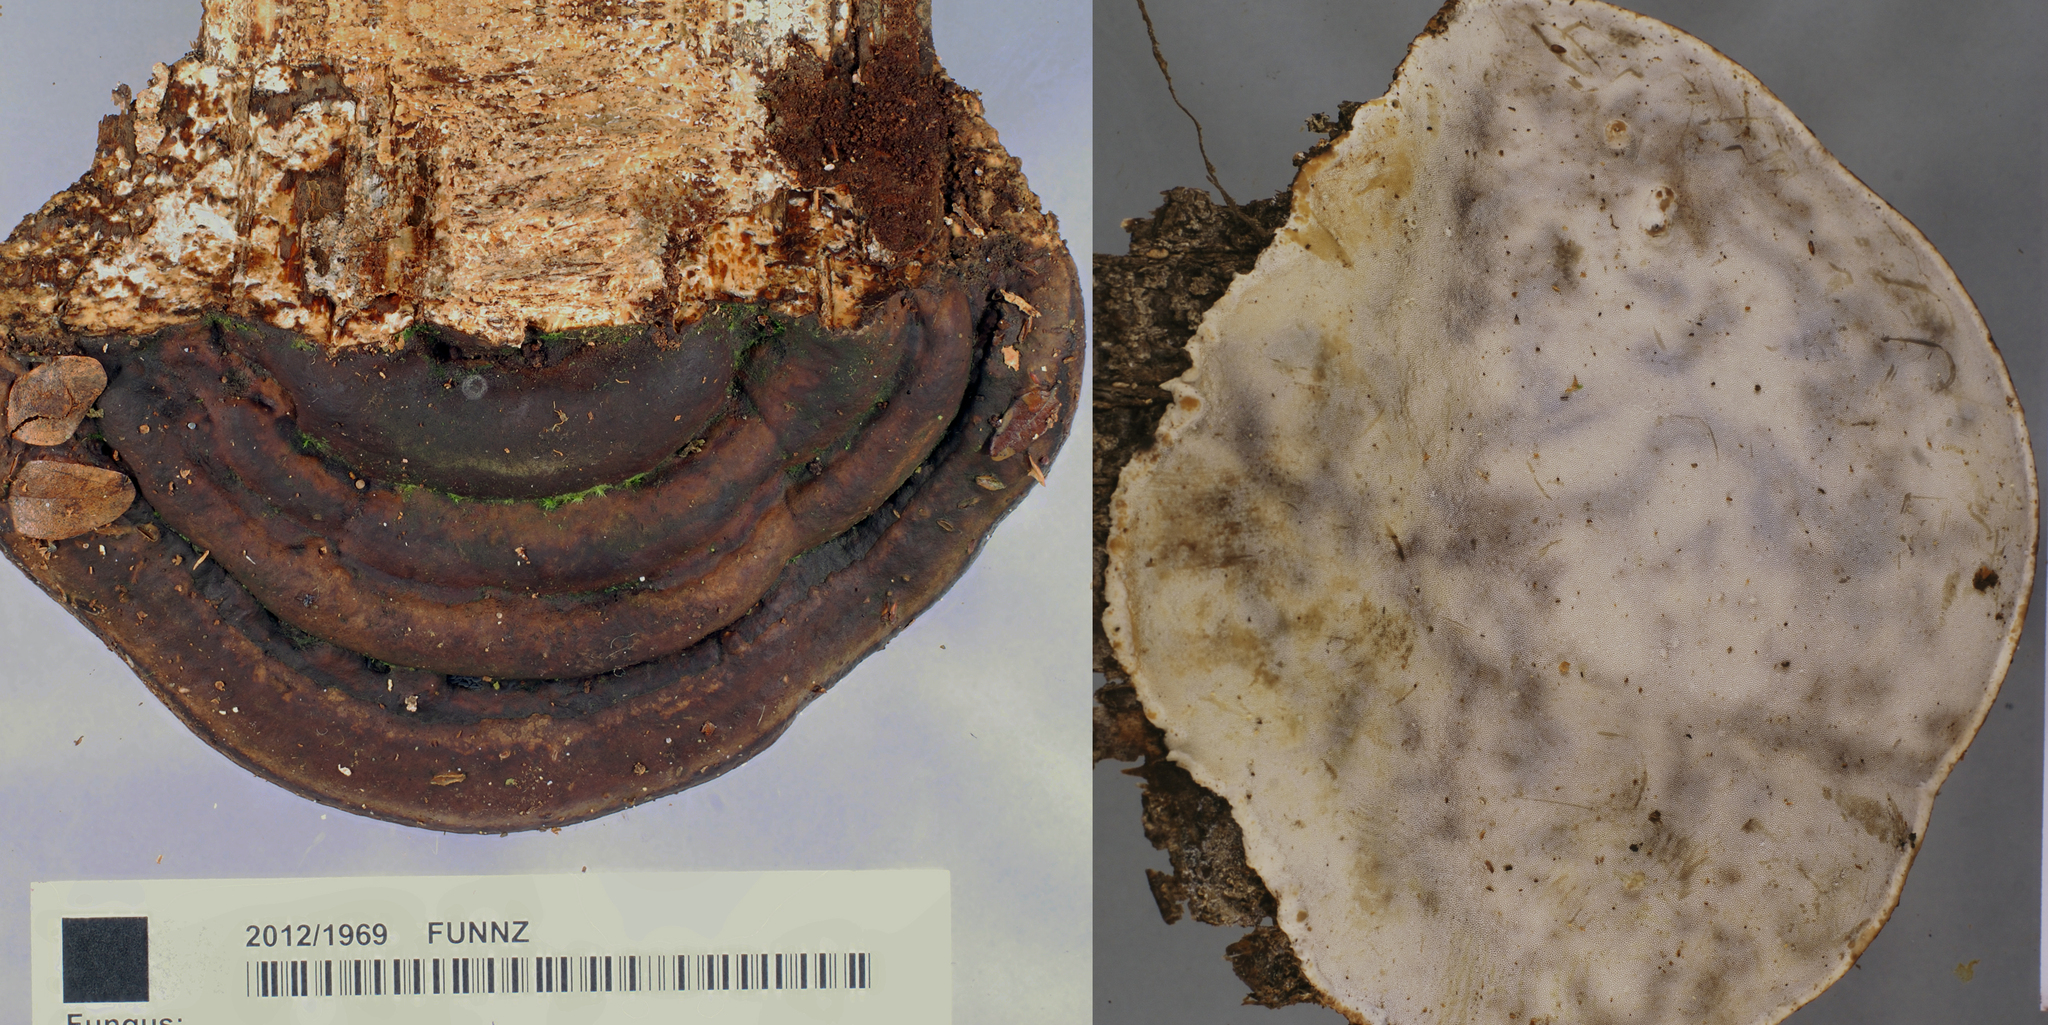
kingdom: Fungi
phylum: Basidiomycota
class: Agaricomycetes
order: Polyporales
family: Fomitopsidaceae
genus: Pilatoporus
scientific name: Pilatoporus hemitephrus
